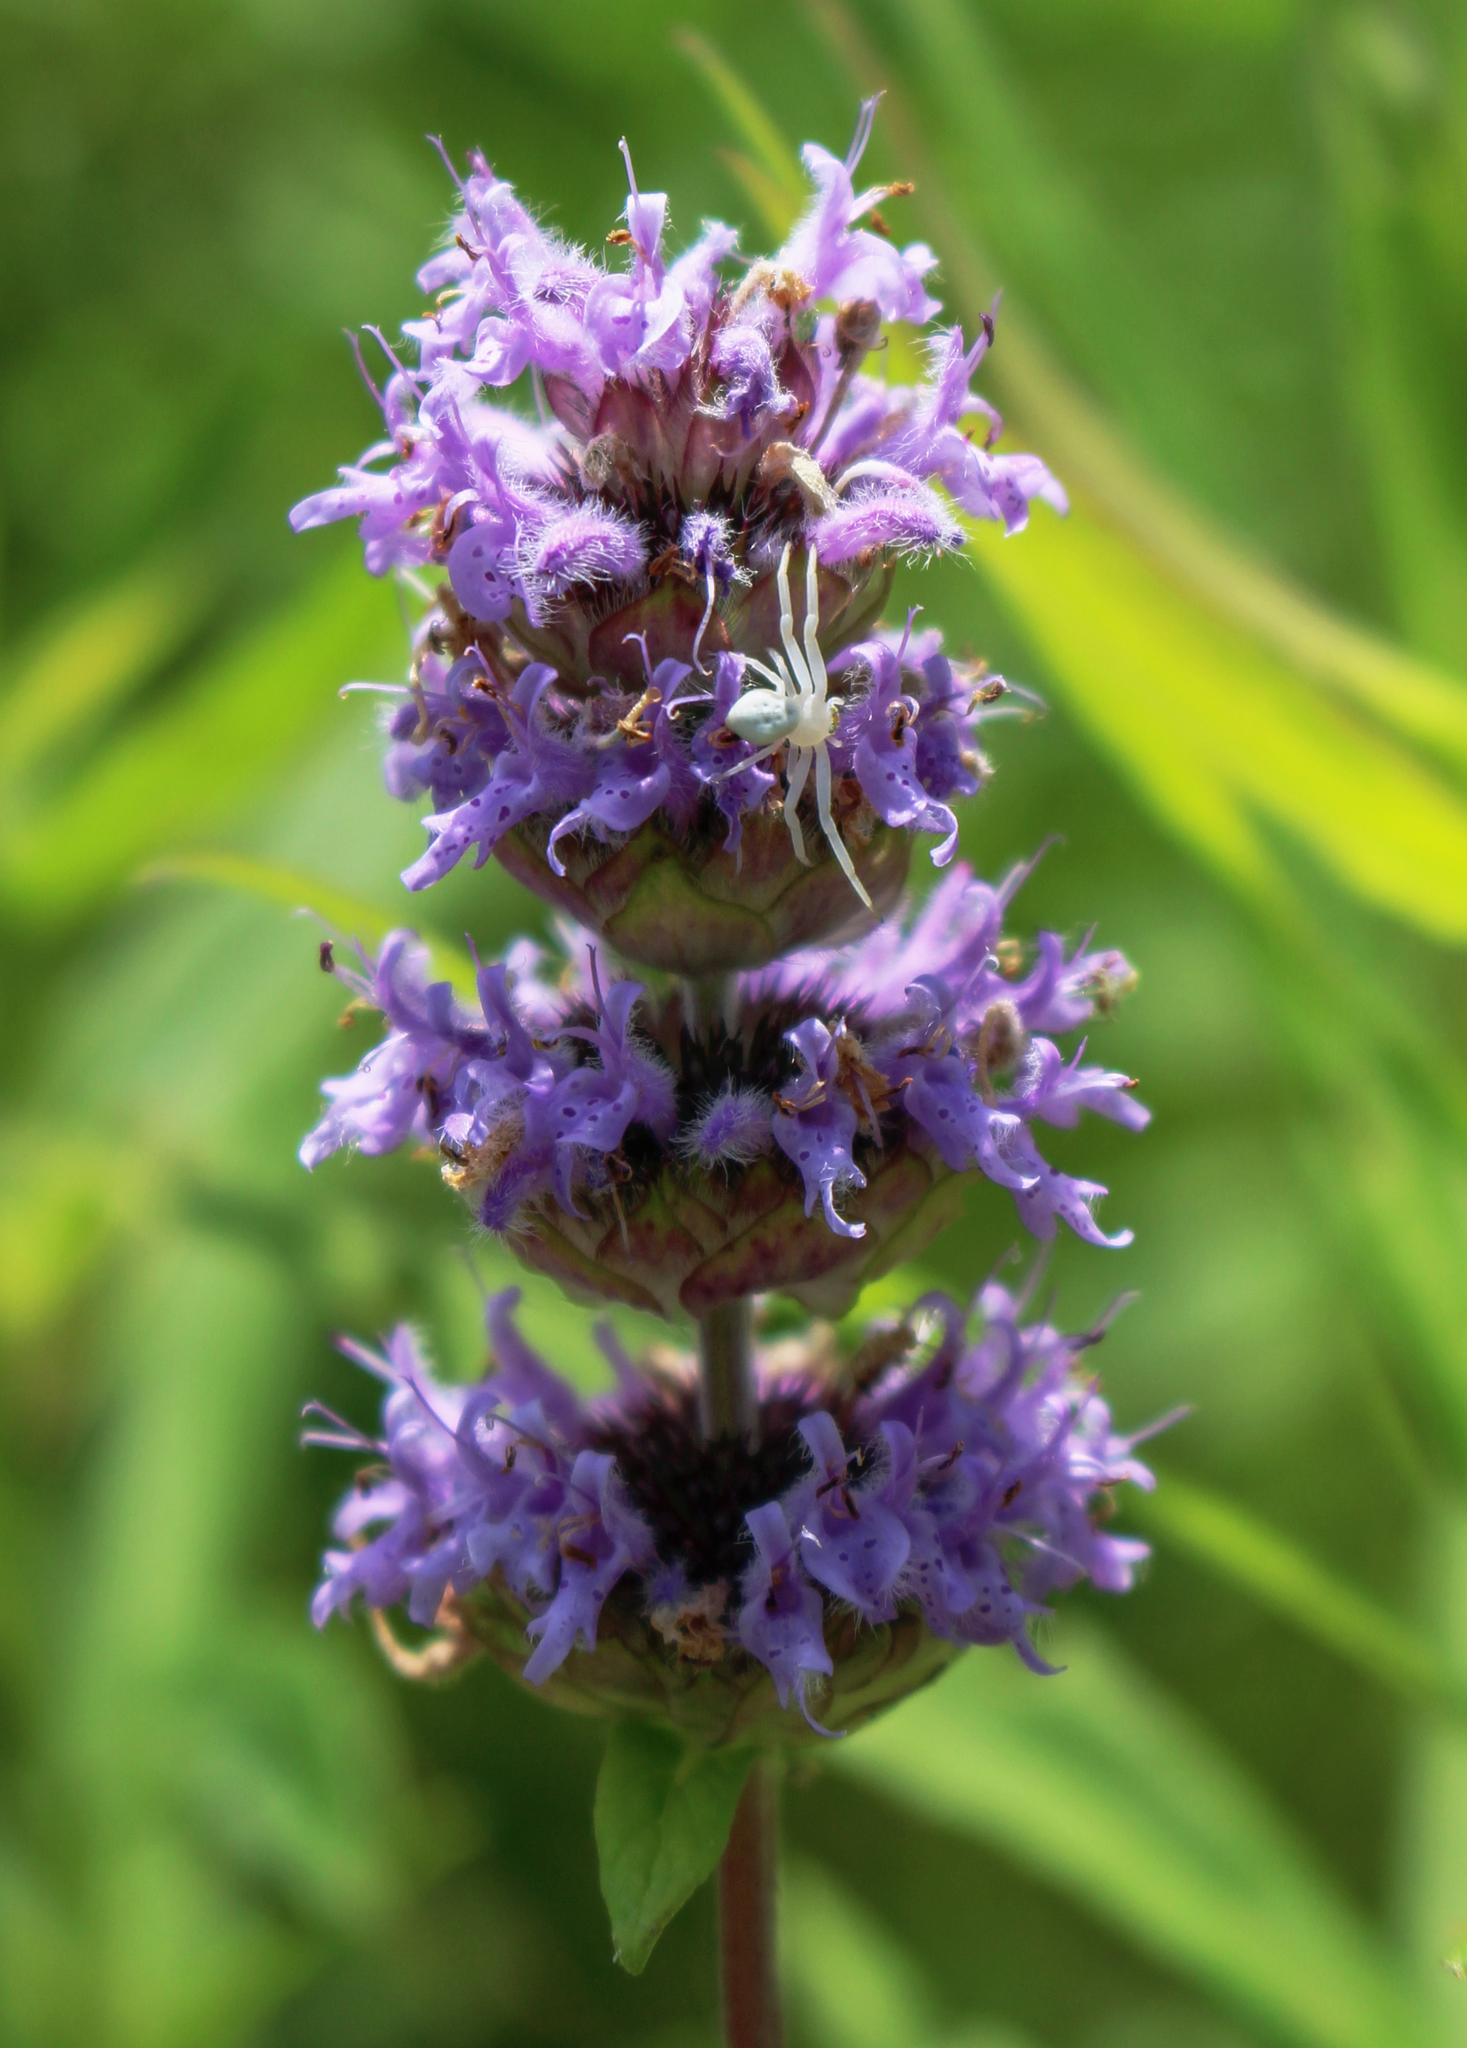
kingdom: Plantae
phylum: Tracheophyta
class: Magnoliopsida
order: Lamiales
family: Lamiaceae
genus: Blephilia
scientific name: Blephilia ciliata
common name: Downy blephilia
